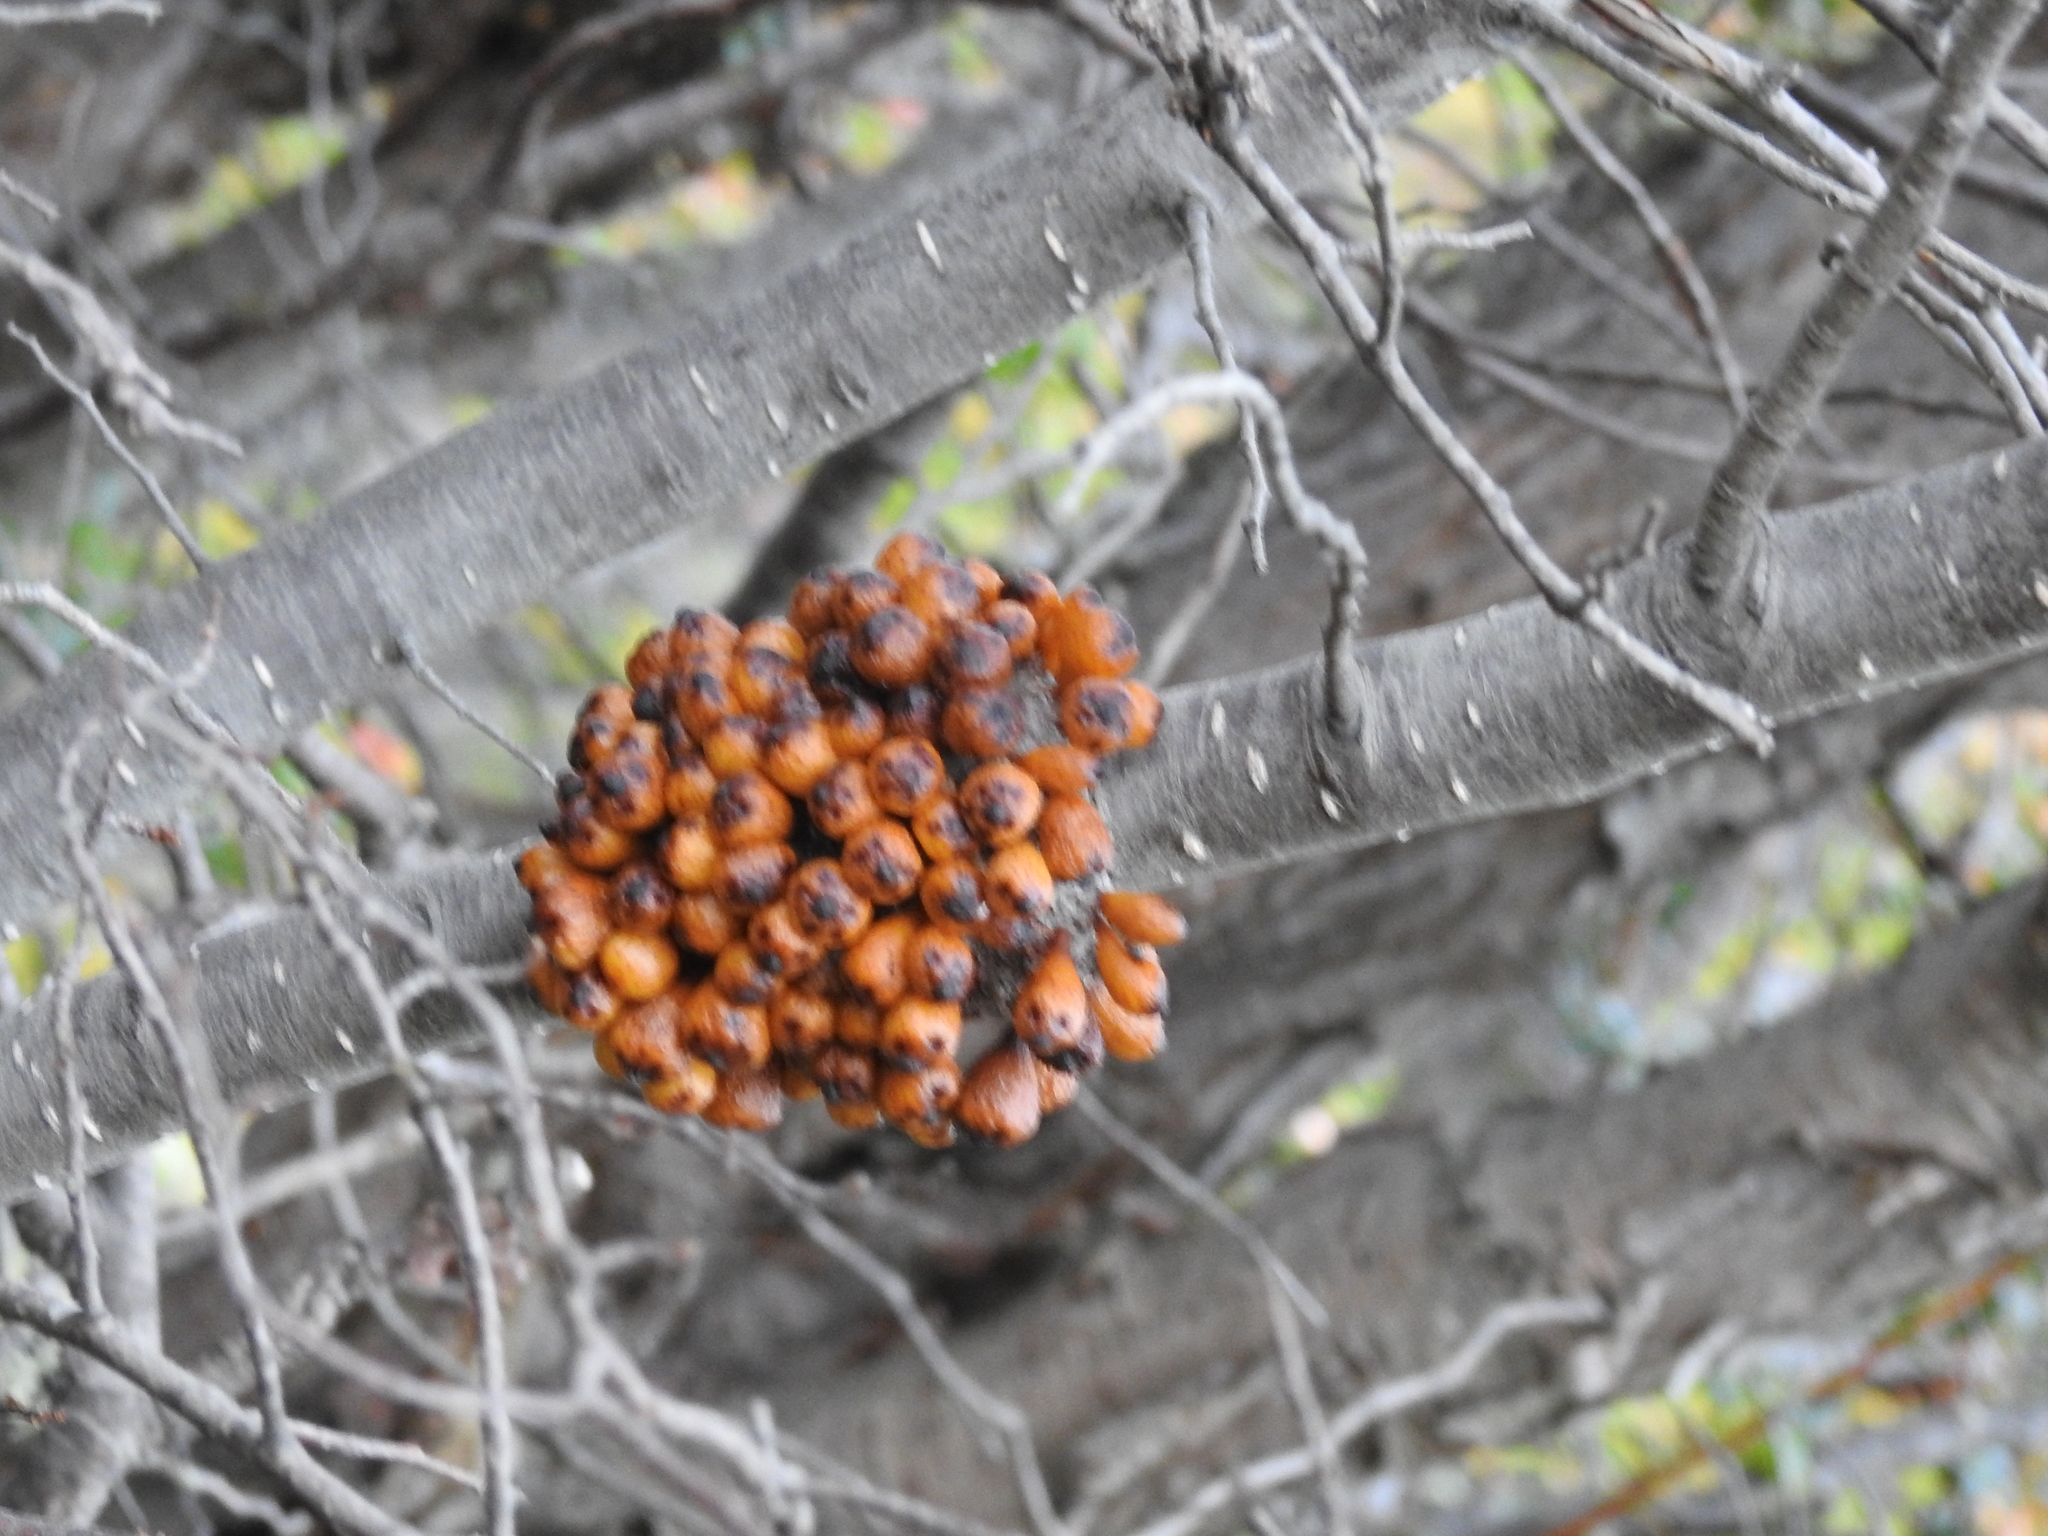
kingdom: Fungi
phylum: Ascomycota
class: Leotiomycetes
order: Cyttariales
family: Cyttariaceae
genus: Cyttaria
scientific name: Cyttaria hookeri
